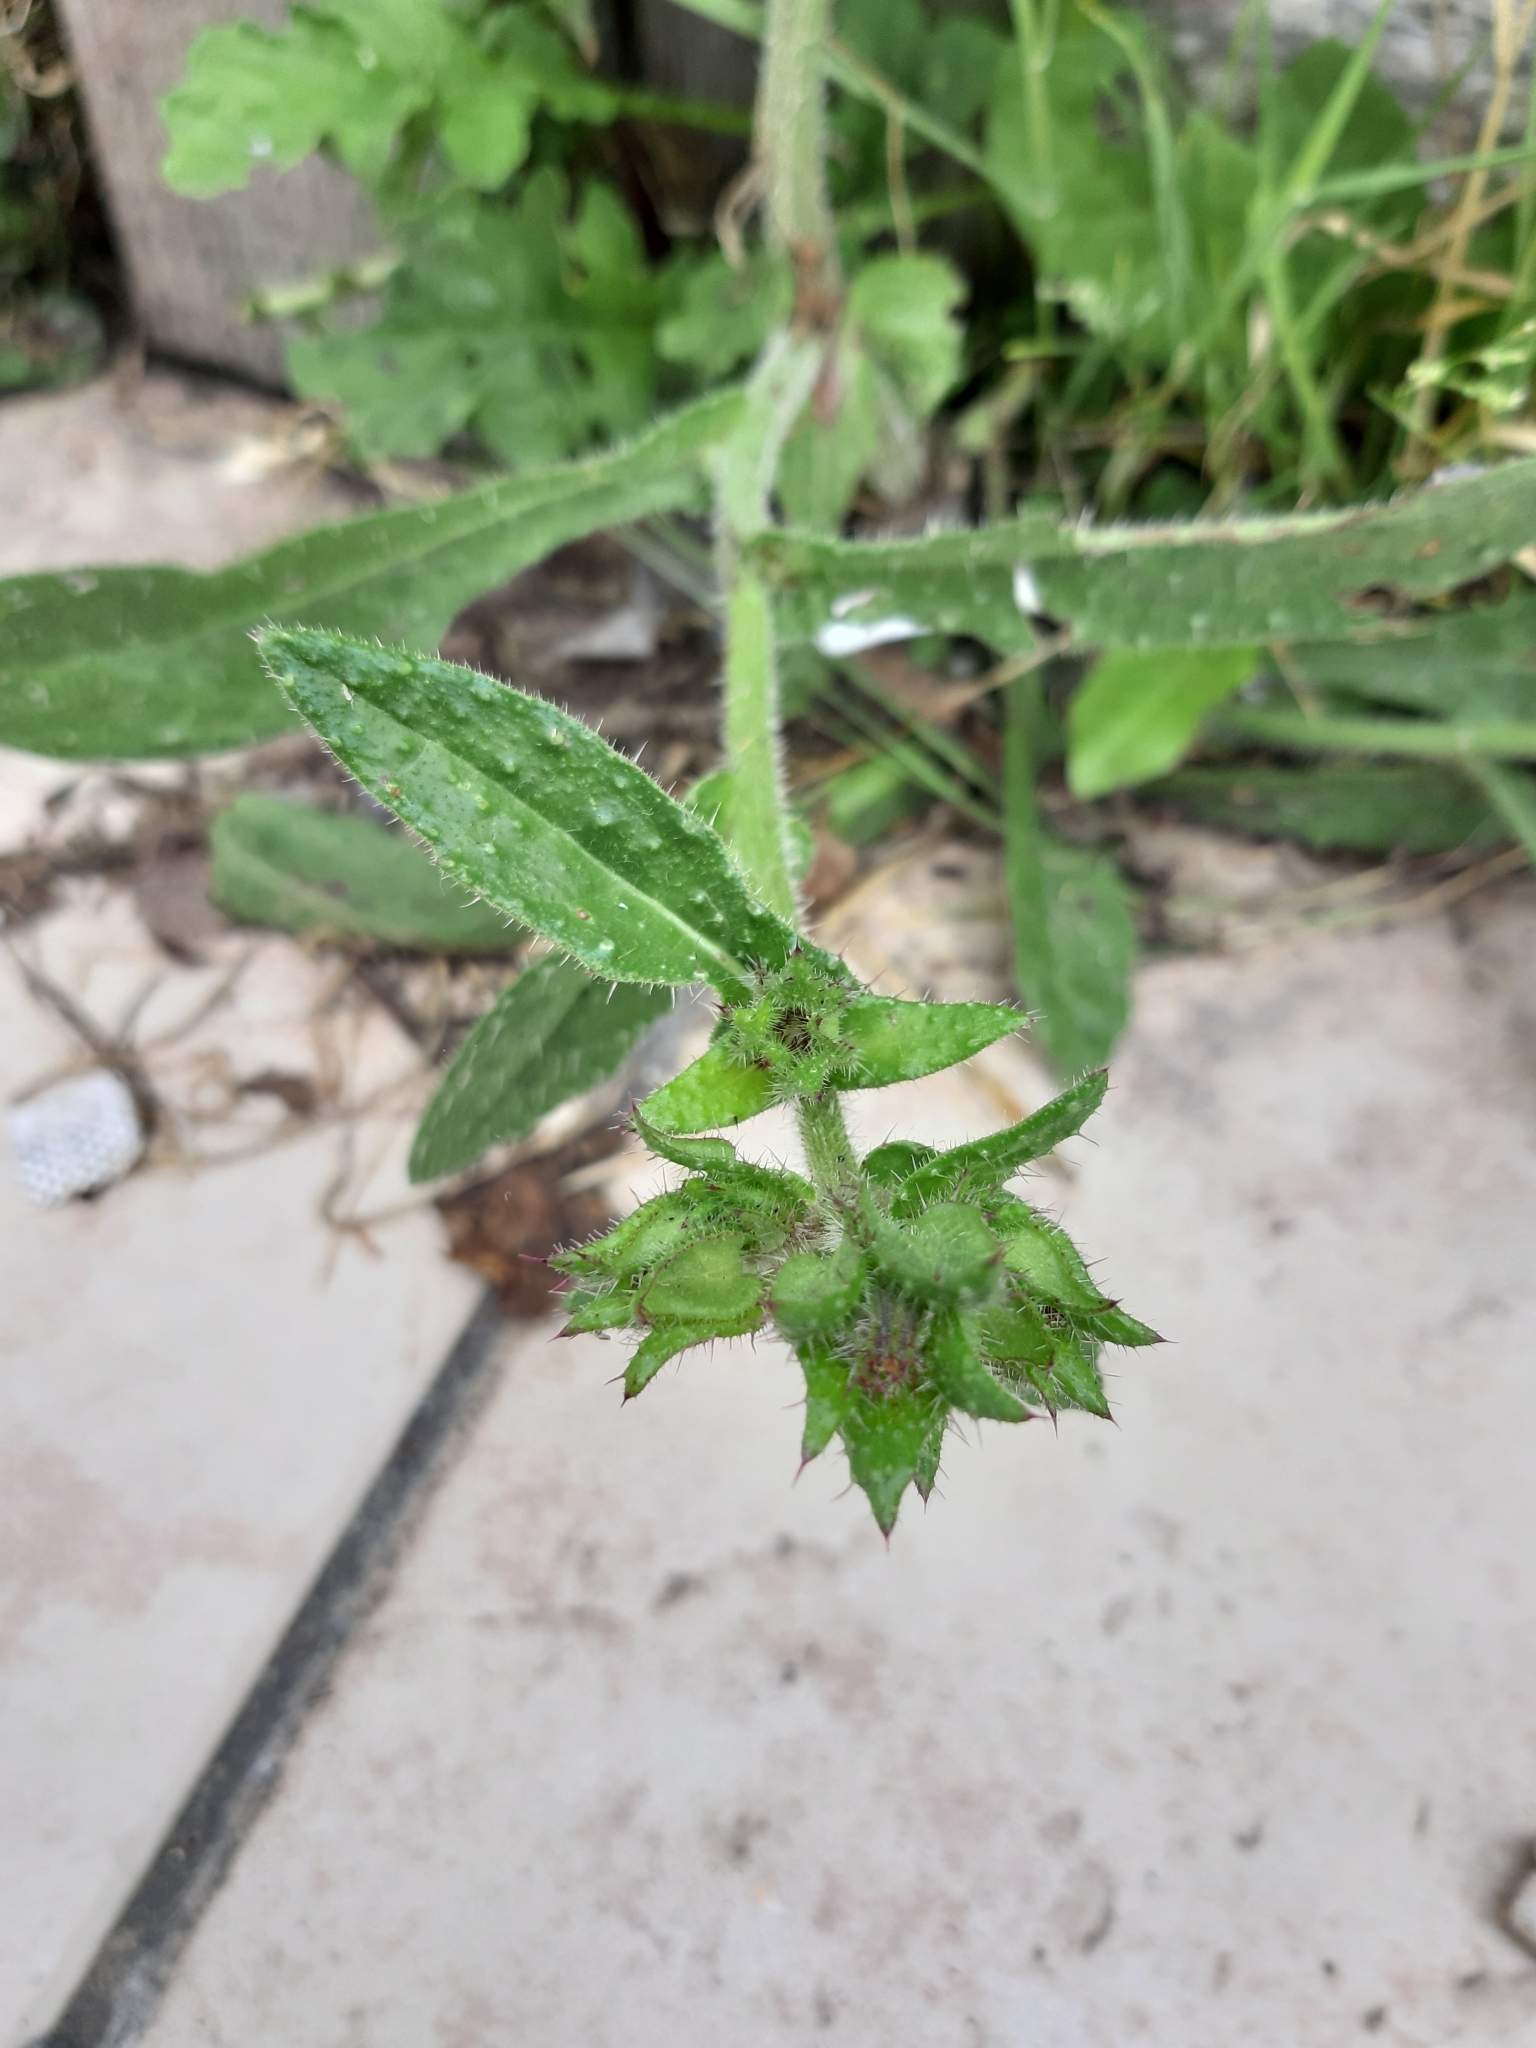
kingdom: Plantae
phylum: Tracheophyta
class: Magnoliopsida
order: Asterales
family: Asteraceae
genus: Helminthotheca
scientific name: Helminthotheca echioides
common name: Ox-tongue
